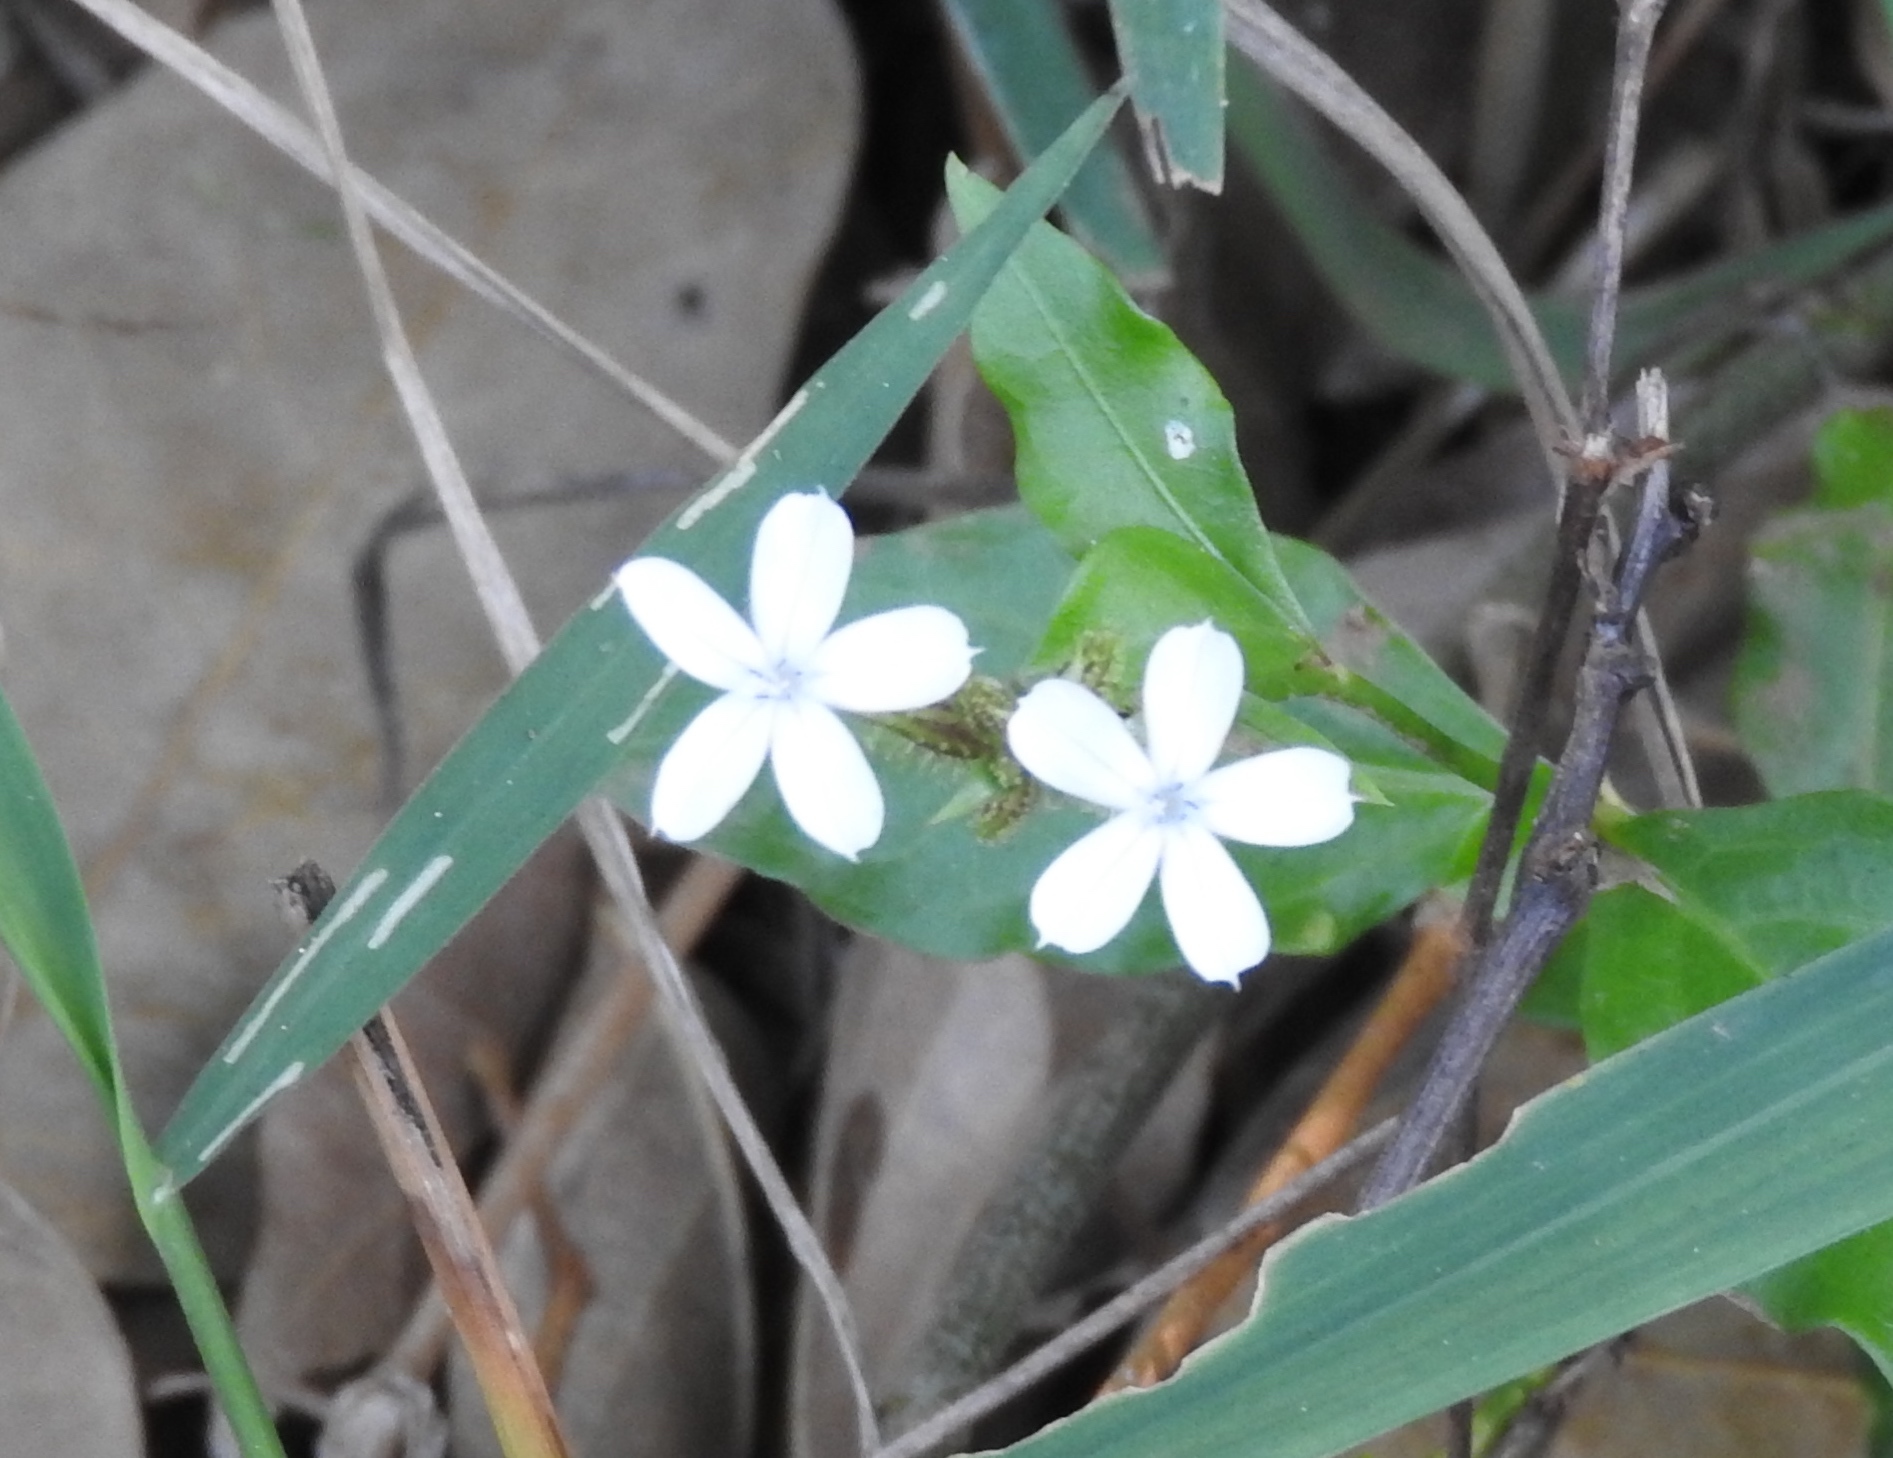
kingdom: Plantae
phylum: Tracheophyta
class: Magnoliopsida
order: Caryophyllales
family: Plumbaginaceae
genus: Plumbago
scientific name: Plumbago zeylanica
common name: Doctorbush
